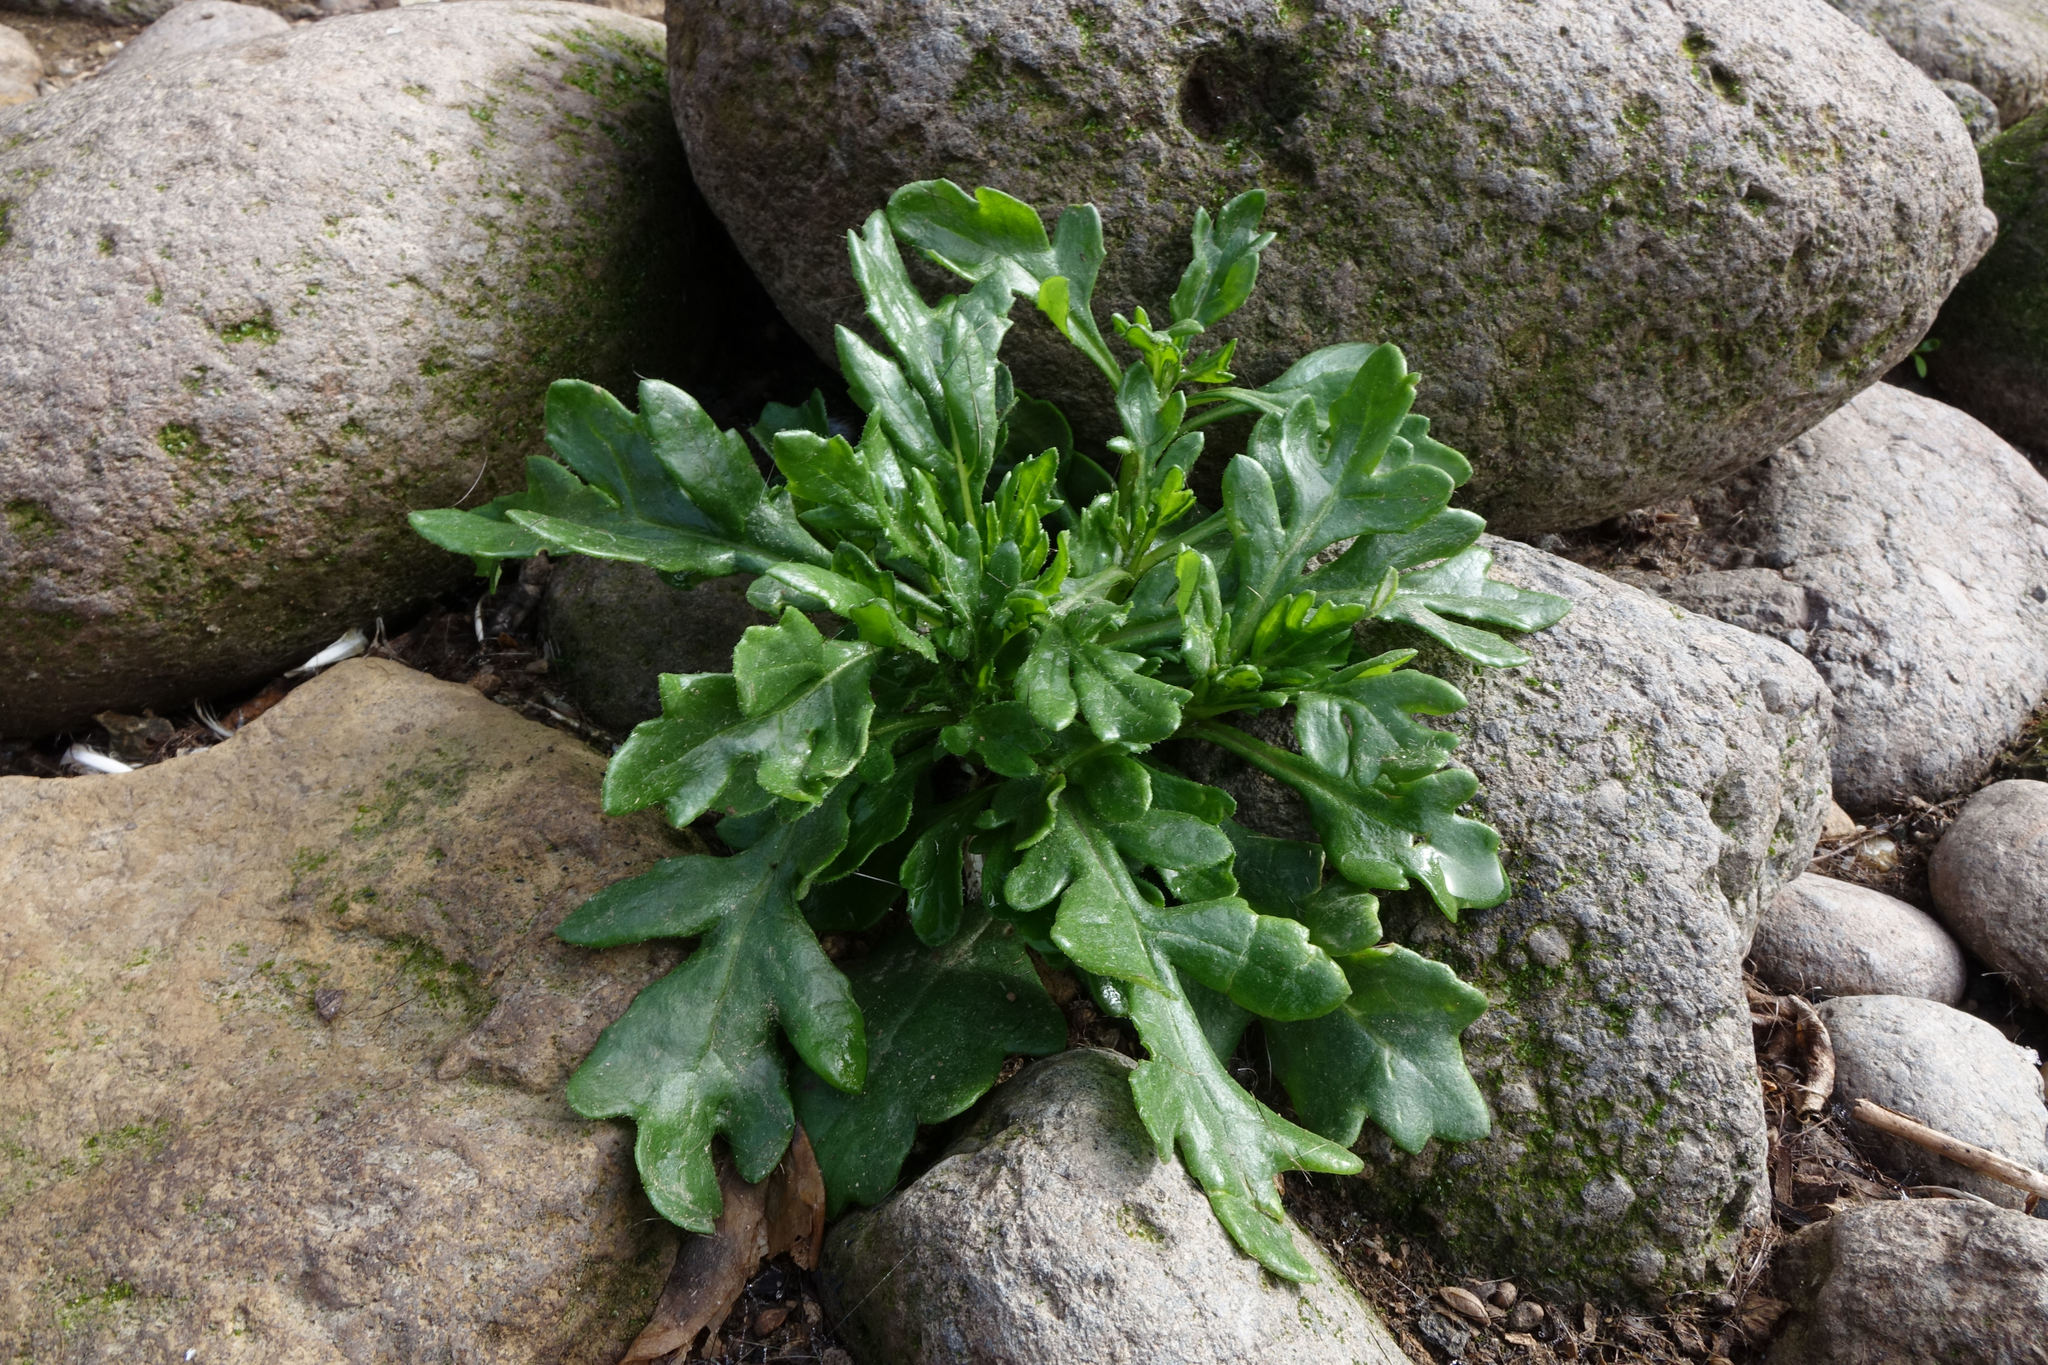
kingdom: Plantae
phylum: Tracheophyta
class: Magnoliopsida
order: Asterales
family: Asteraceae
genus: Senecio
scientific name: Senecio carnosulus
